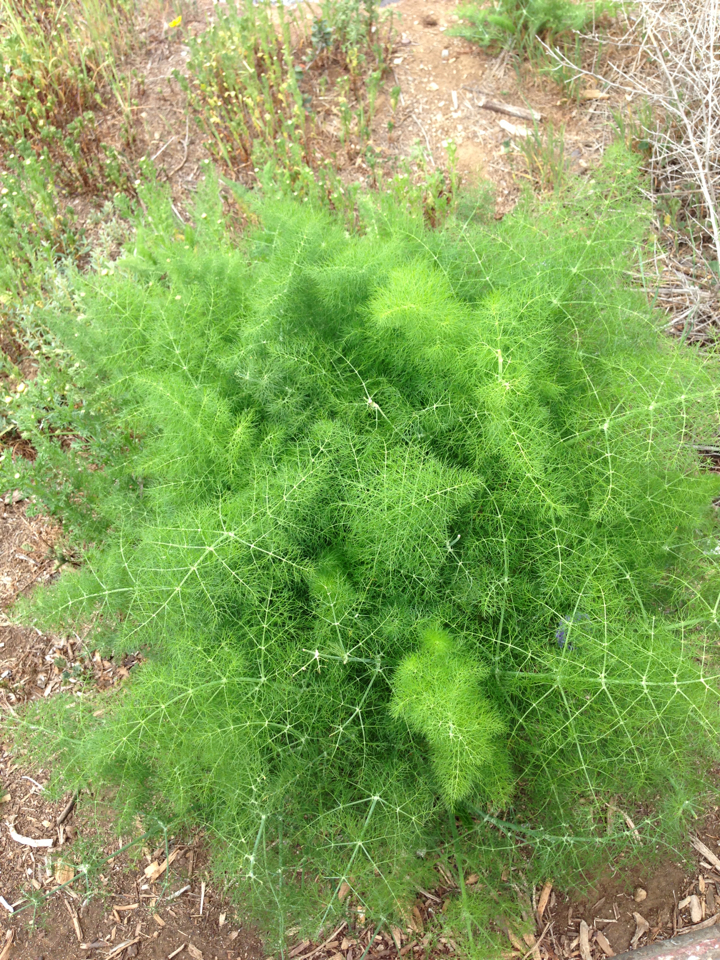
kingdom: Plantae
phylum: Tracheophyta
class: Magnoliopsida
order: Apiales
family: Apiaceae
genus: Foeniculum
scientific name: Foeniculum vulgare
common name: Fennel
